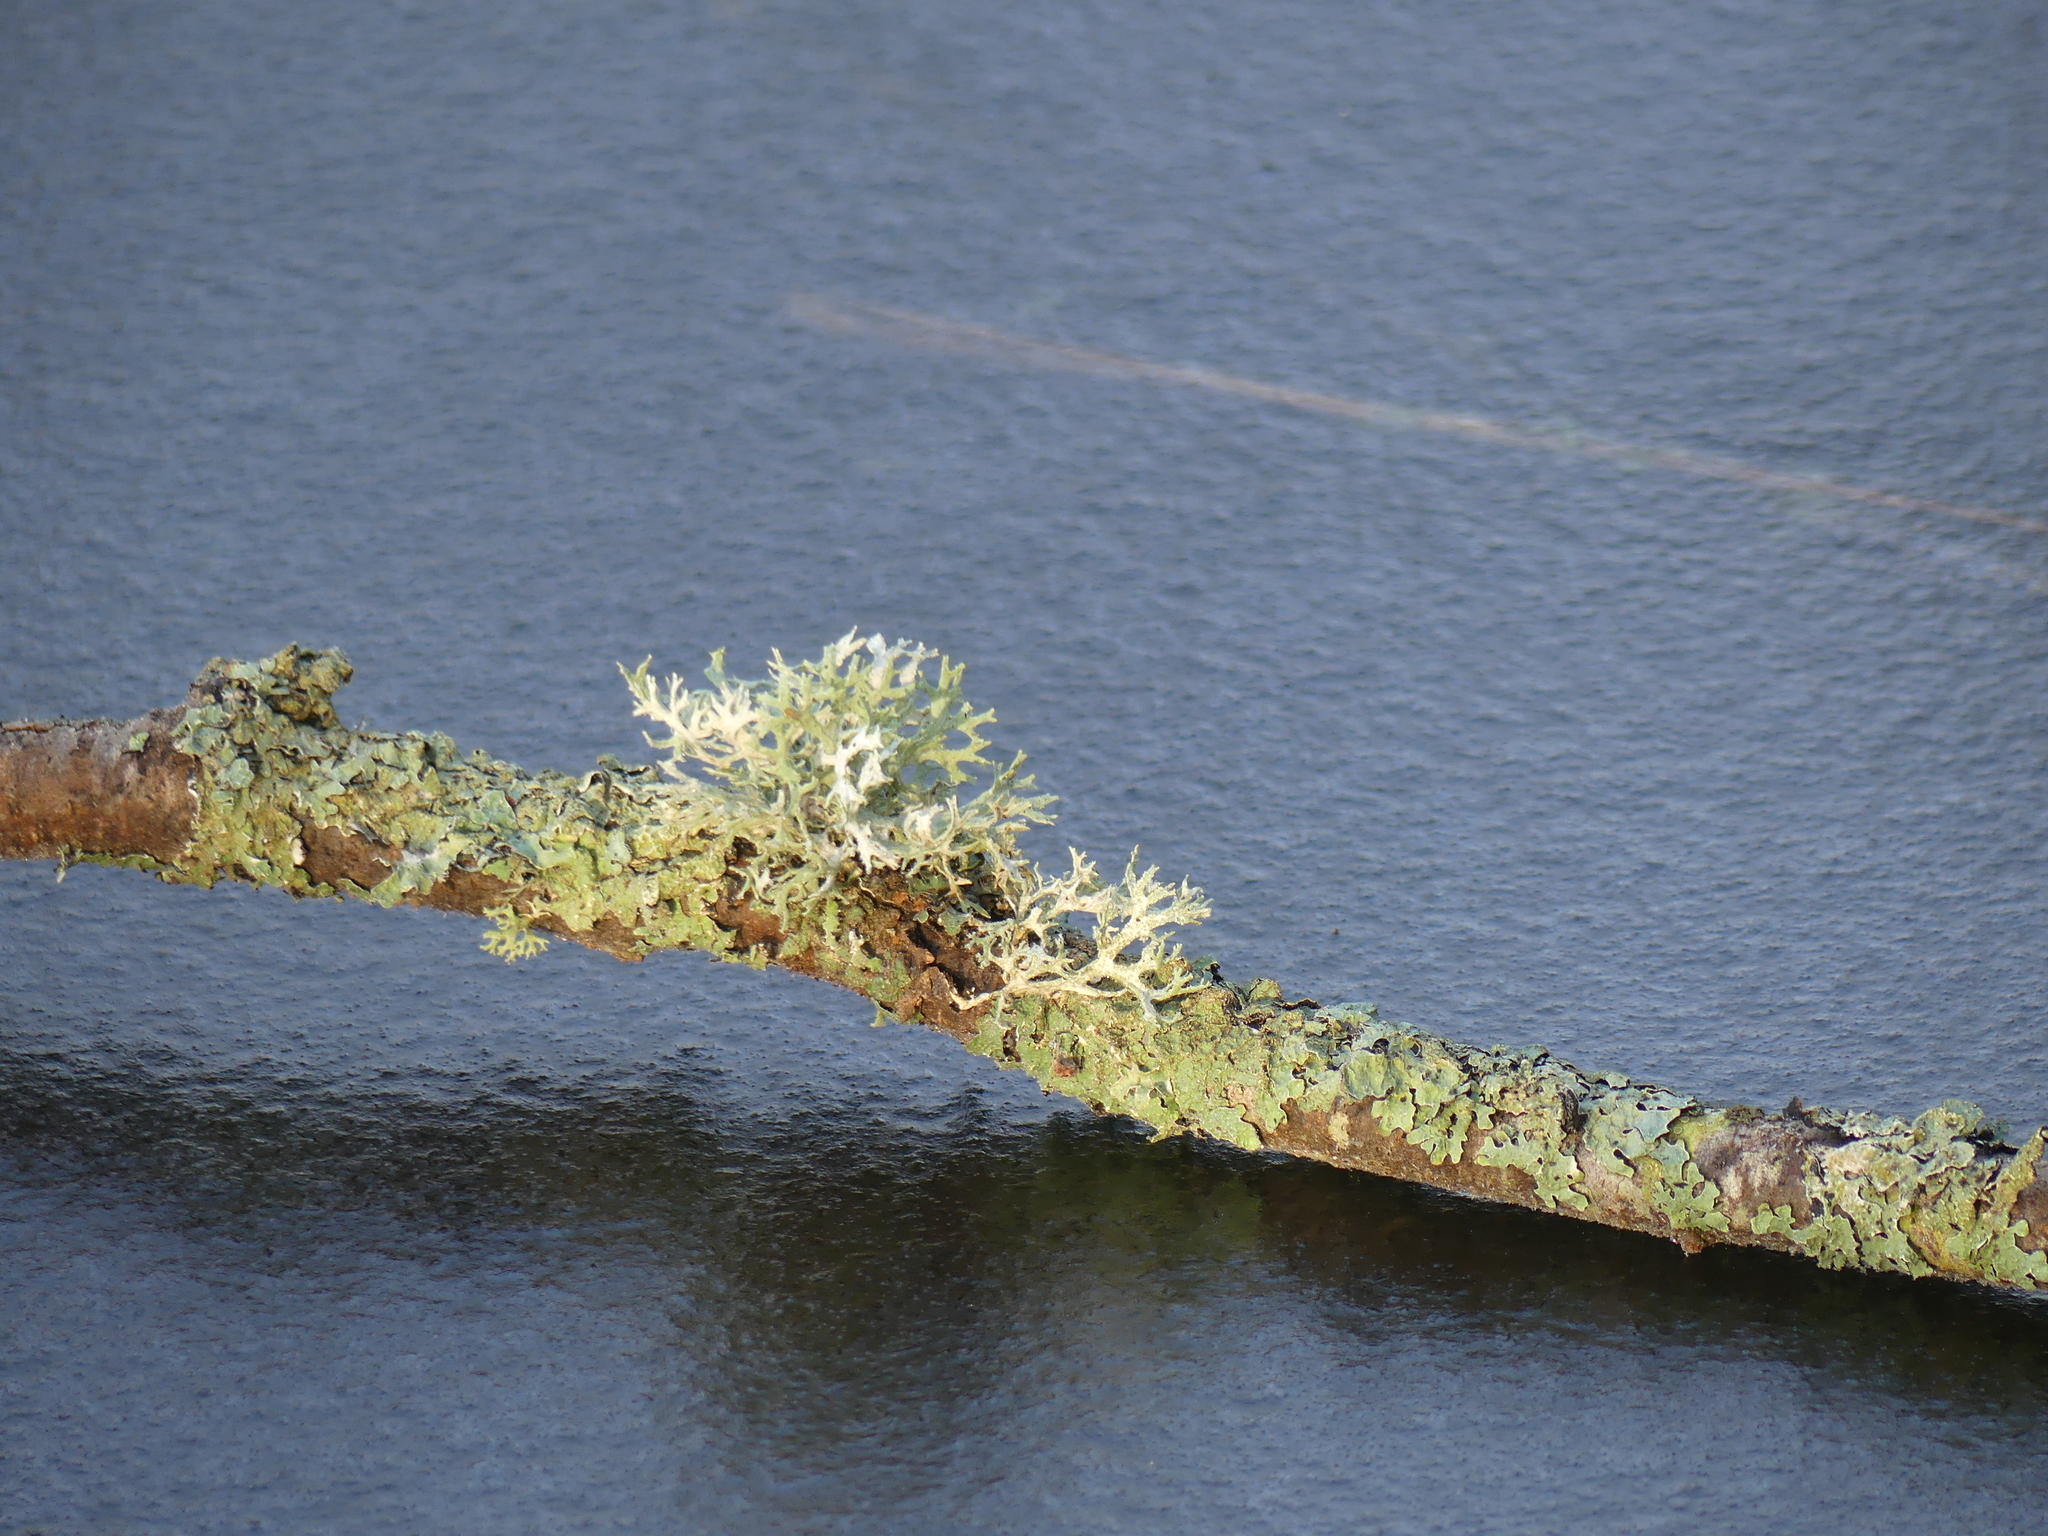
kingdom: Fungi
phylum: Ascomycota
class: Lecanoromycetes
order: Lecanorales
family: Parmeliaceae
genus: Parmelia
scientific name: Parmelia sulcata
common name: Netted shield lichen
